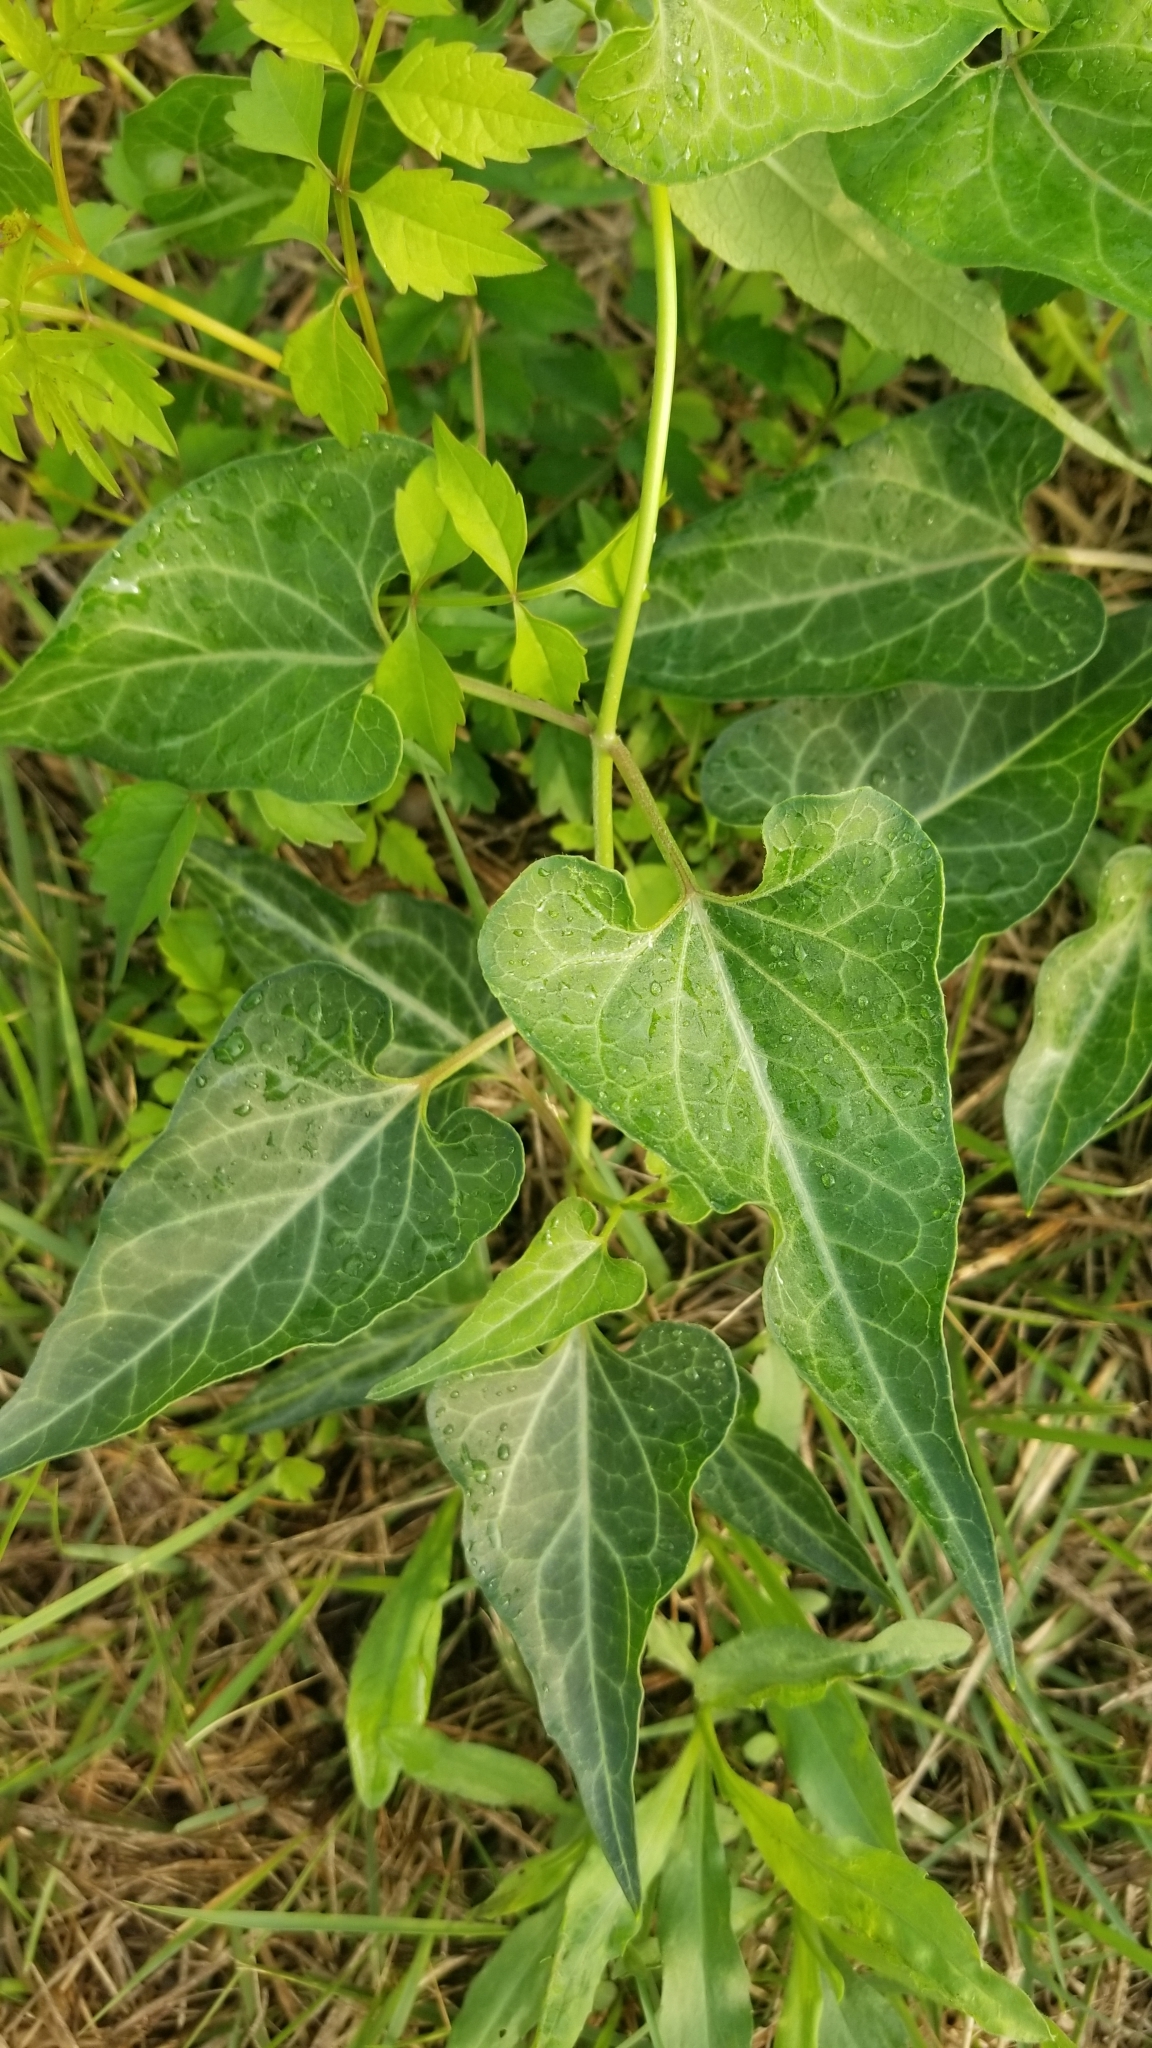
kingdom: Plantae
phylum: Tracheophyta
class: Magnoliopsida
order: Gentianales
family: Apocynaceae
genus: Cynanchum
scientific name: Cynanchum laeve
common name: Sandvine
